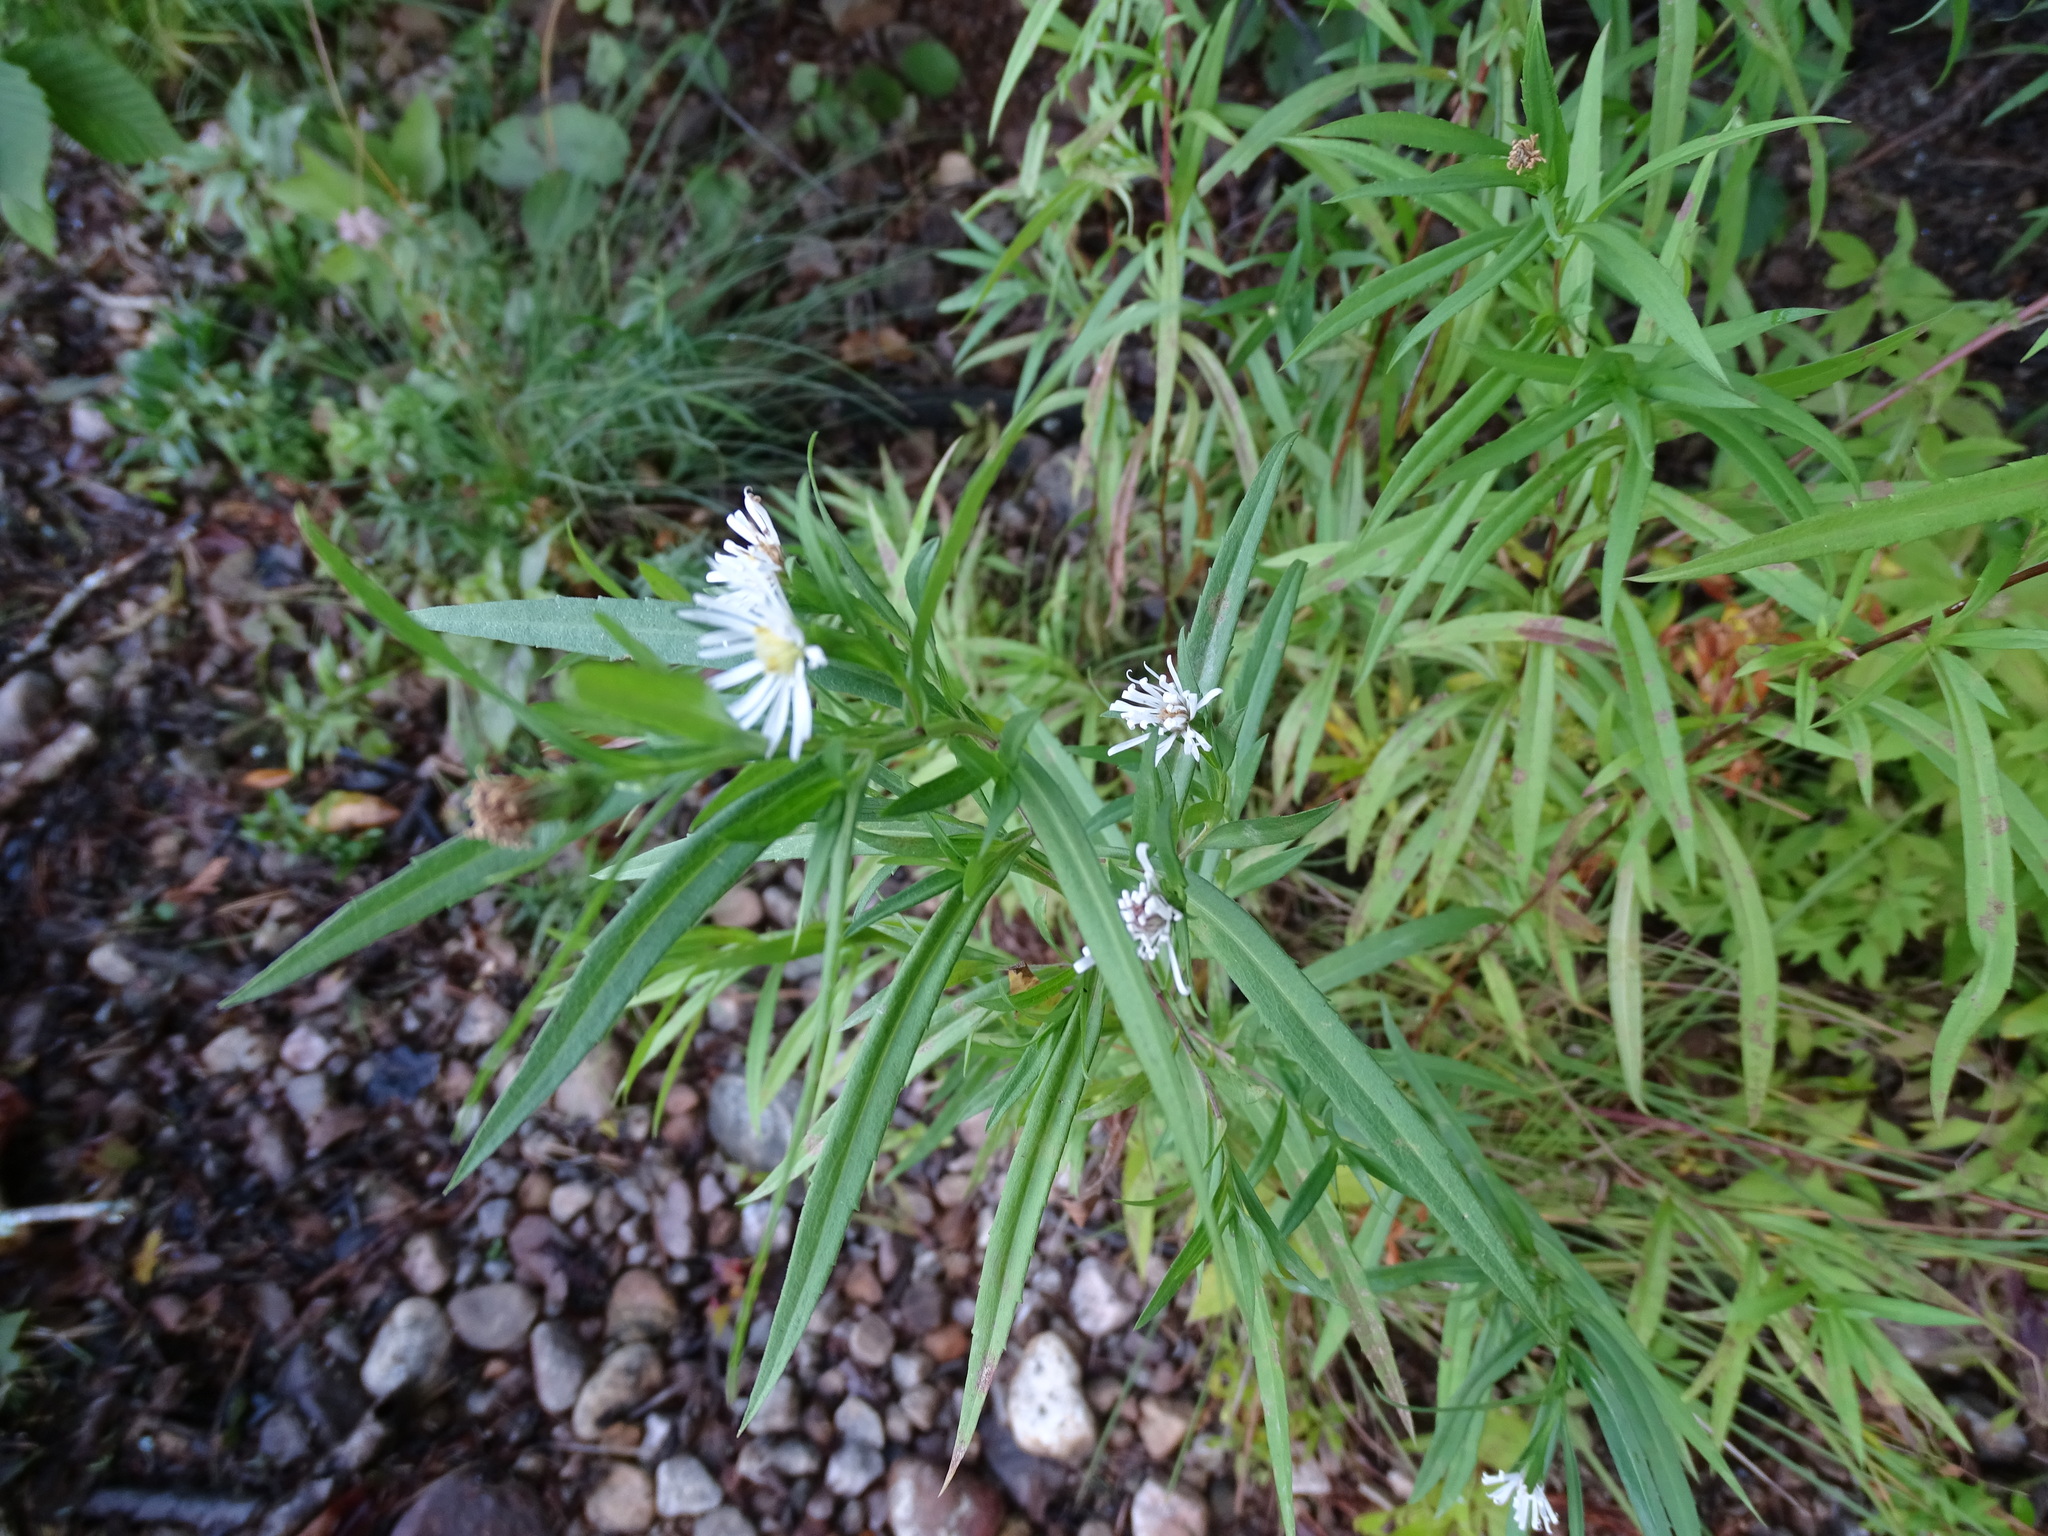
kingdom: Plantae
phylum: Tracheophyta
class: Magnoliopsida
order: Asterales
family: Asteraceae
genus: Symphyotrichum
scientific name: Symphyotrichum lanceolatum
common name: Panicled aster
